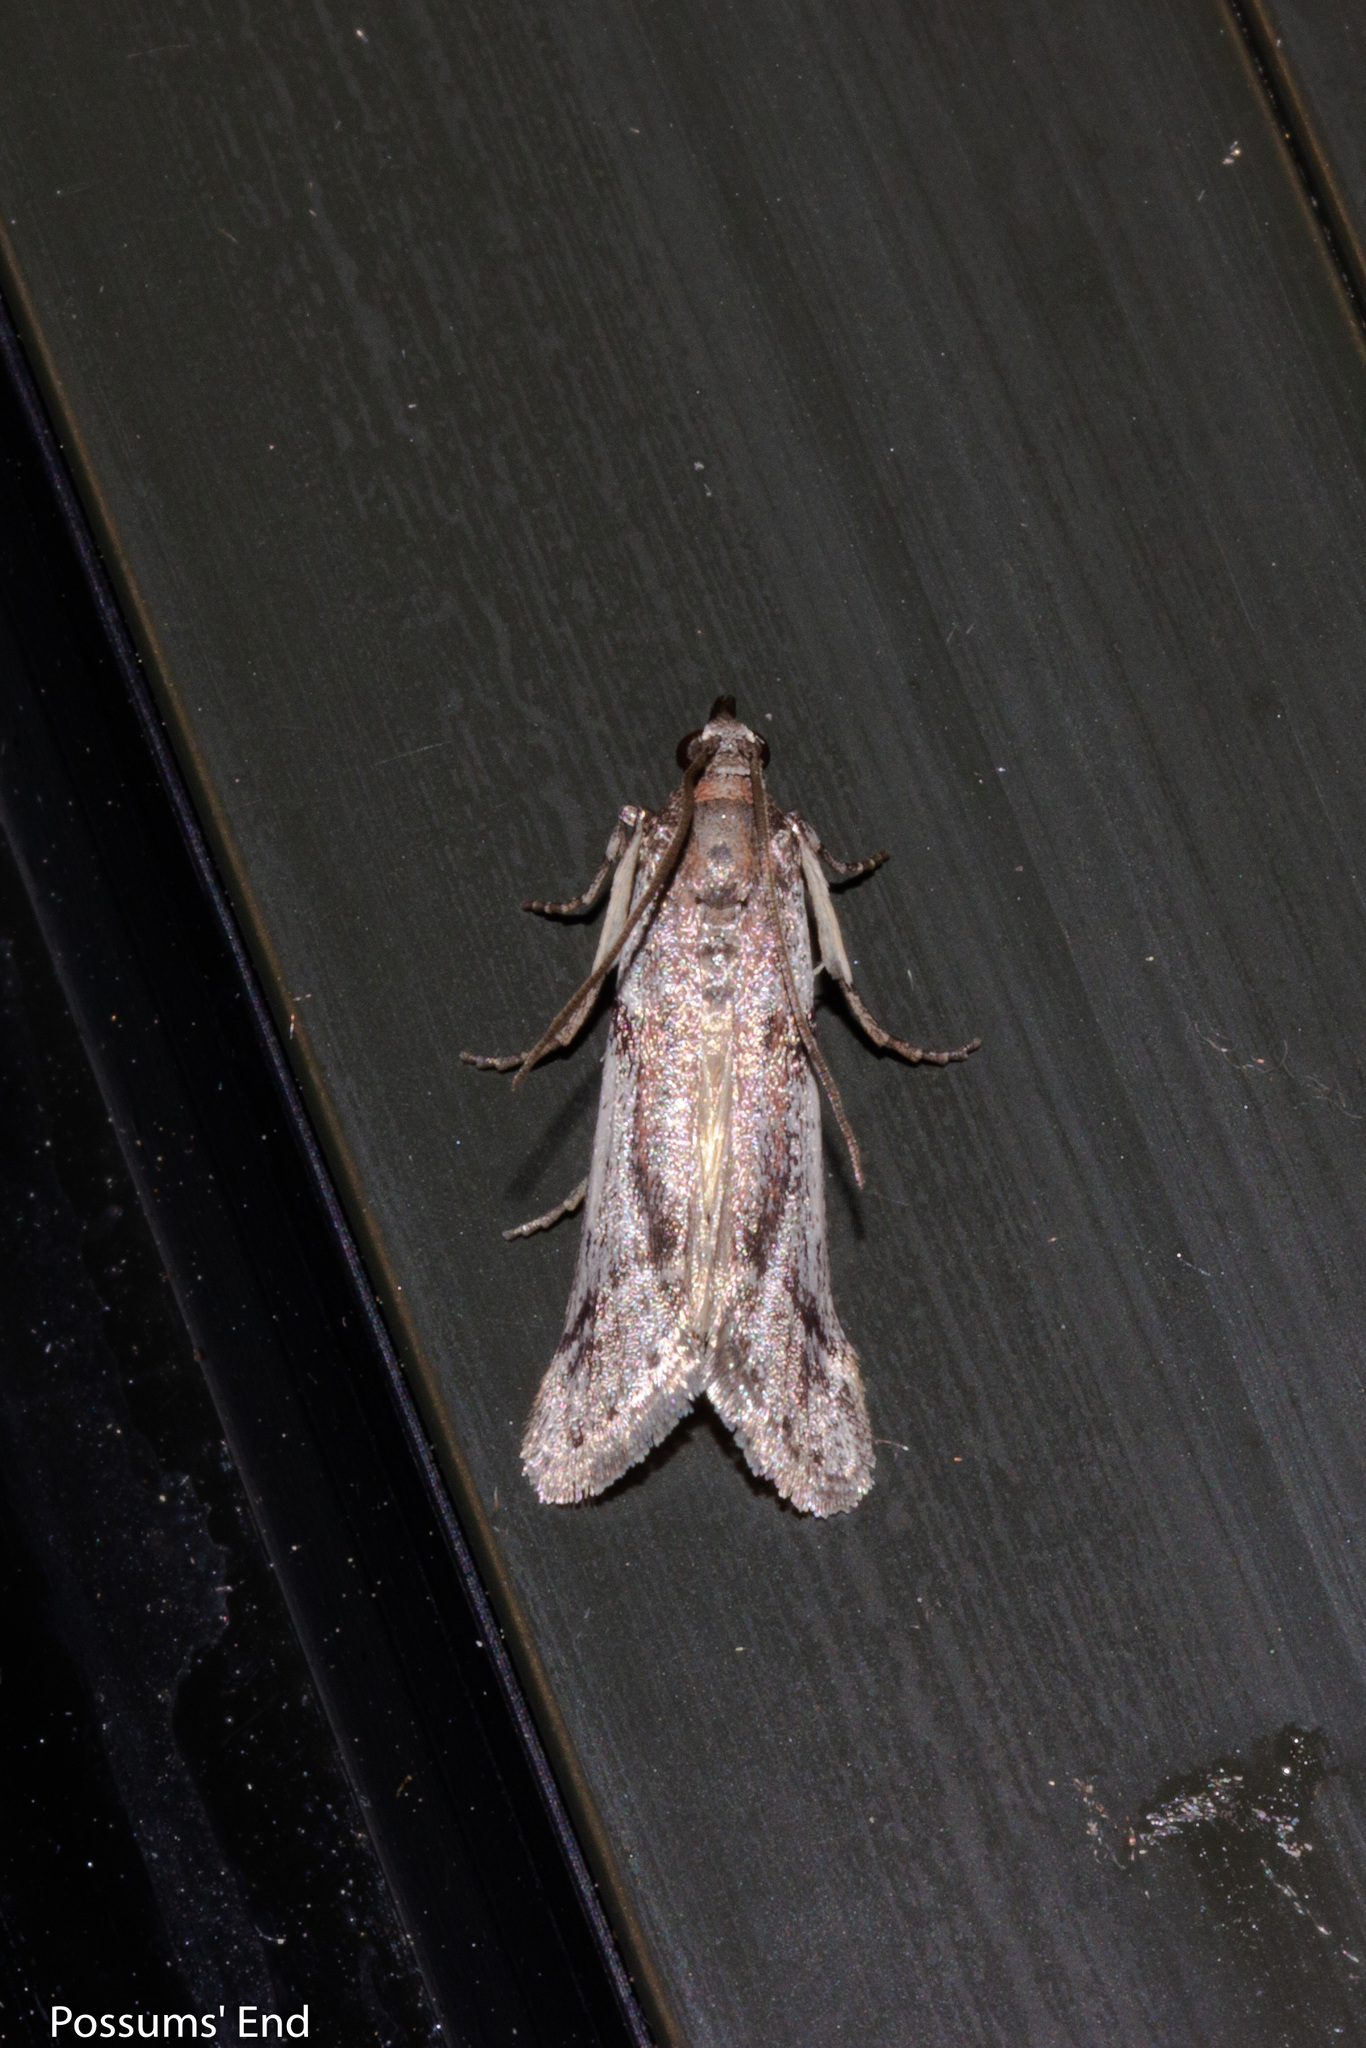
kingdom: Animalia
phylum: Arthropoda
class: Insecta
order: Lepidoptera
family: Pyralidae
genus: Patagoniodes
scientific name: Patagoniodes farinaria
